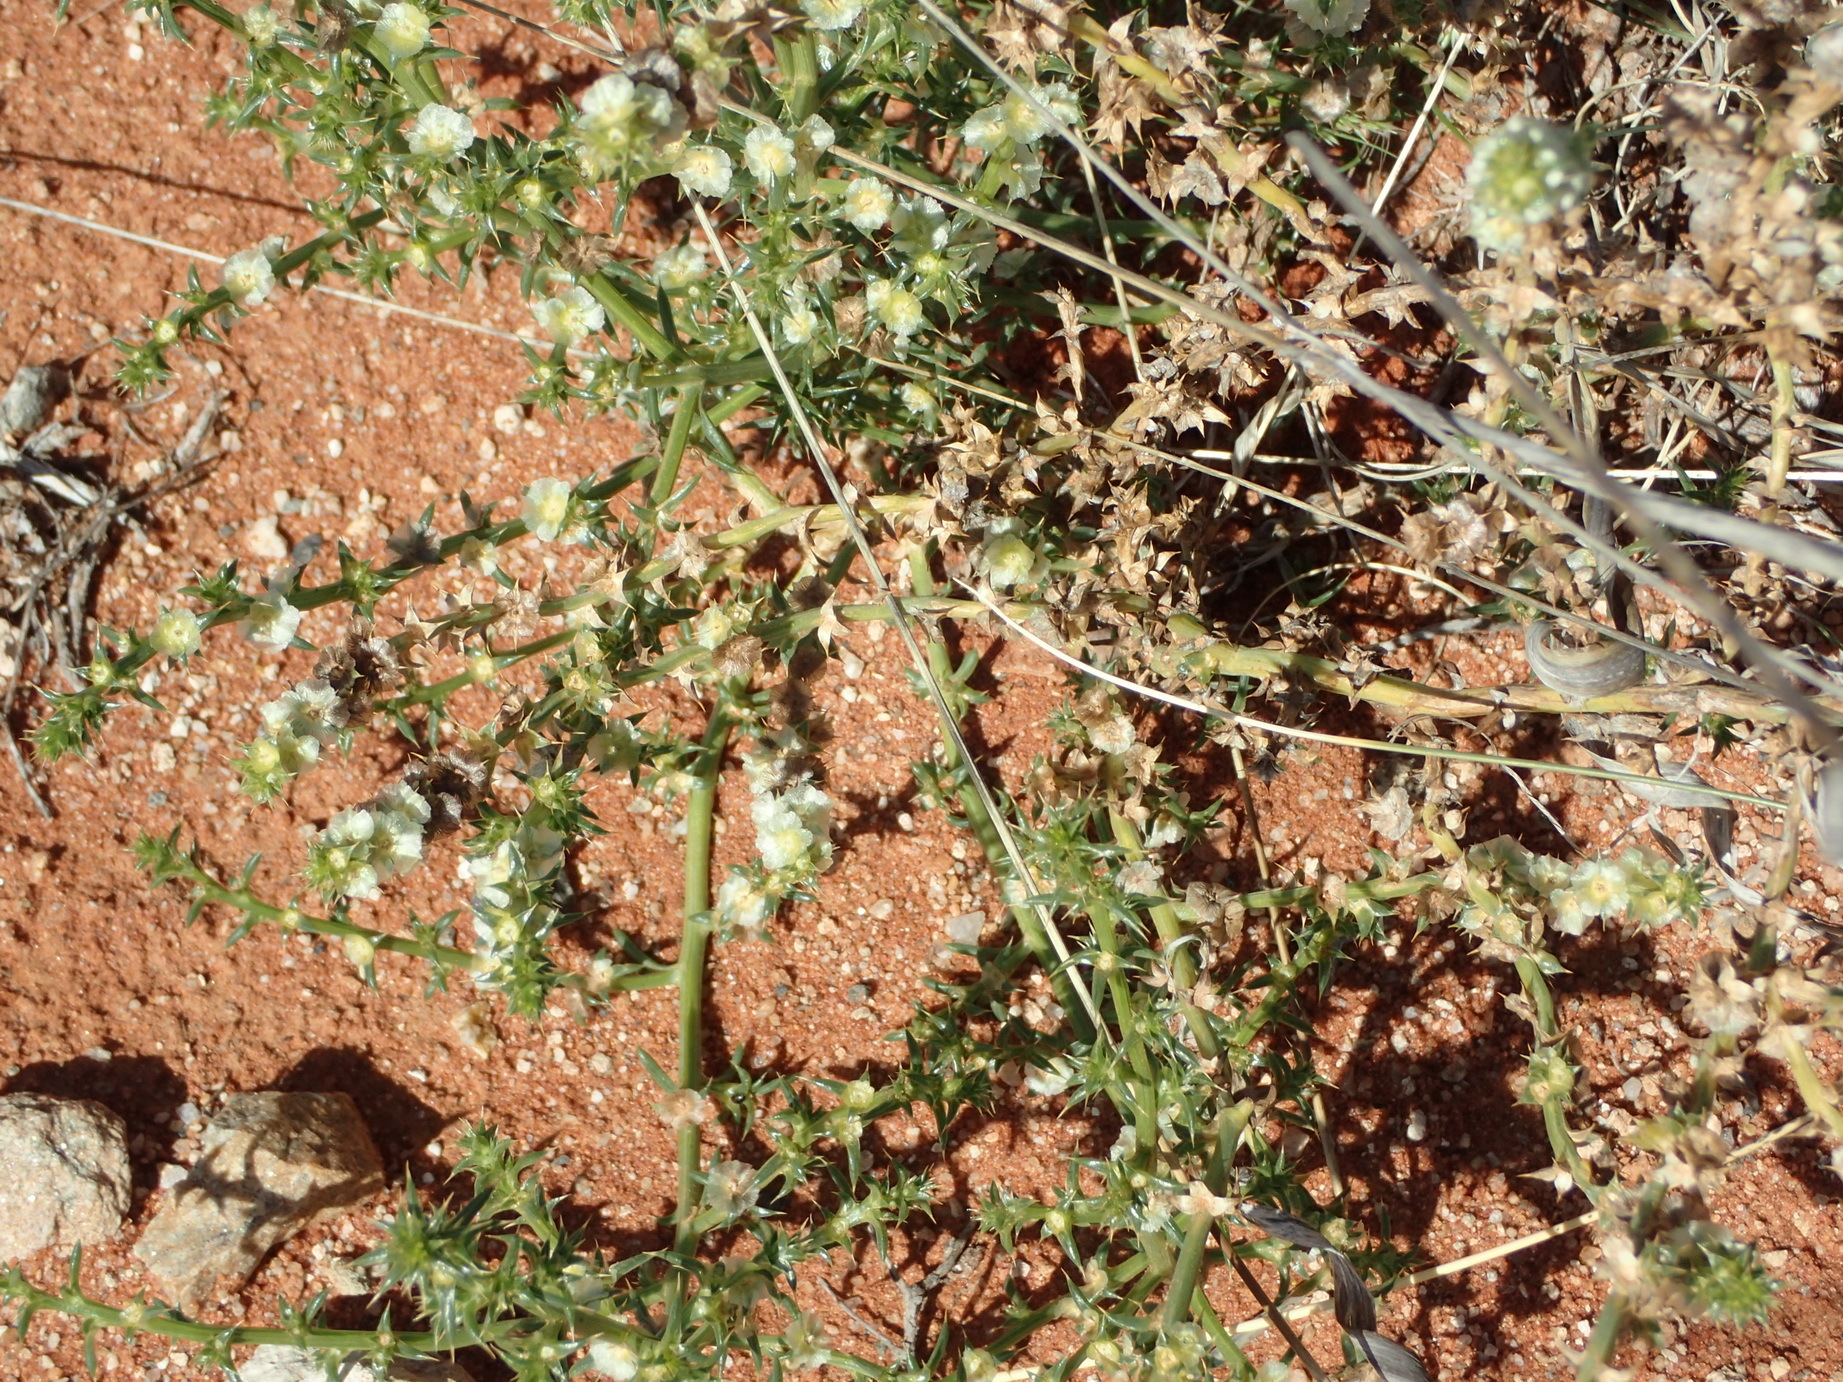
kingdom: Plantae
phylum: Tracheophyta
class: Magnoliopsida
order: Caryophyllales
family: Amaranthaceae
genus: Salsola
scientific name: Salsola kali
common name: Saltwort
